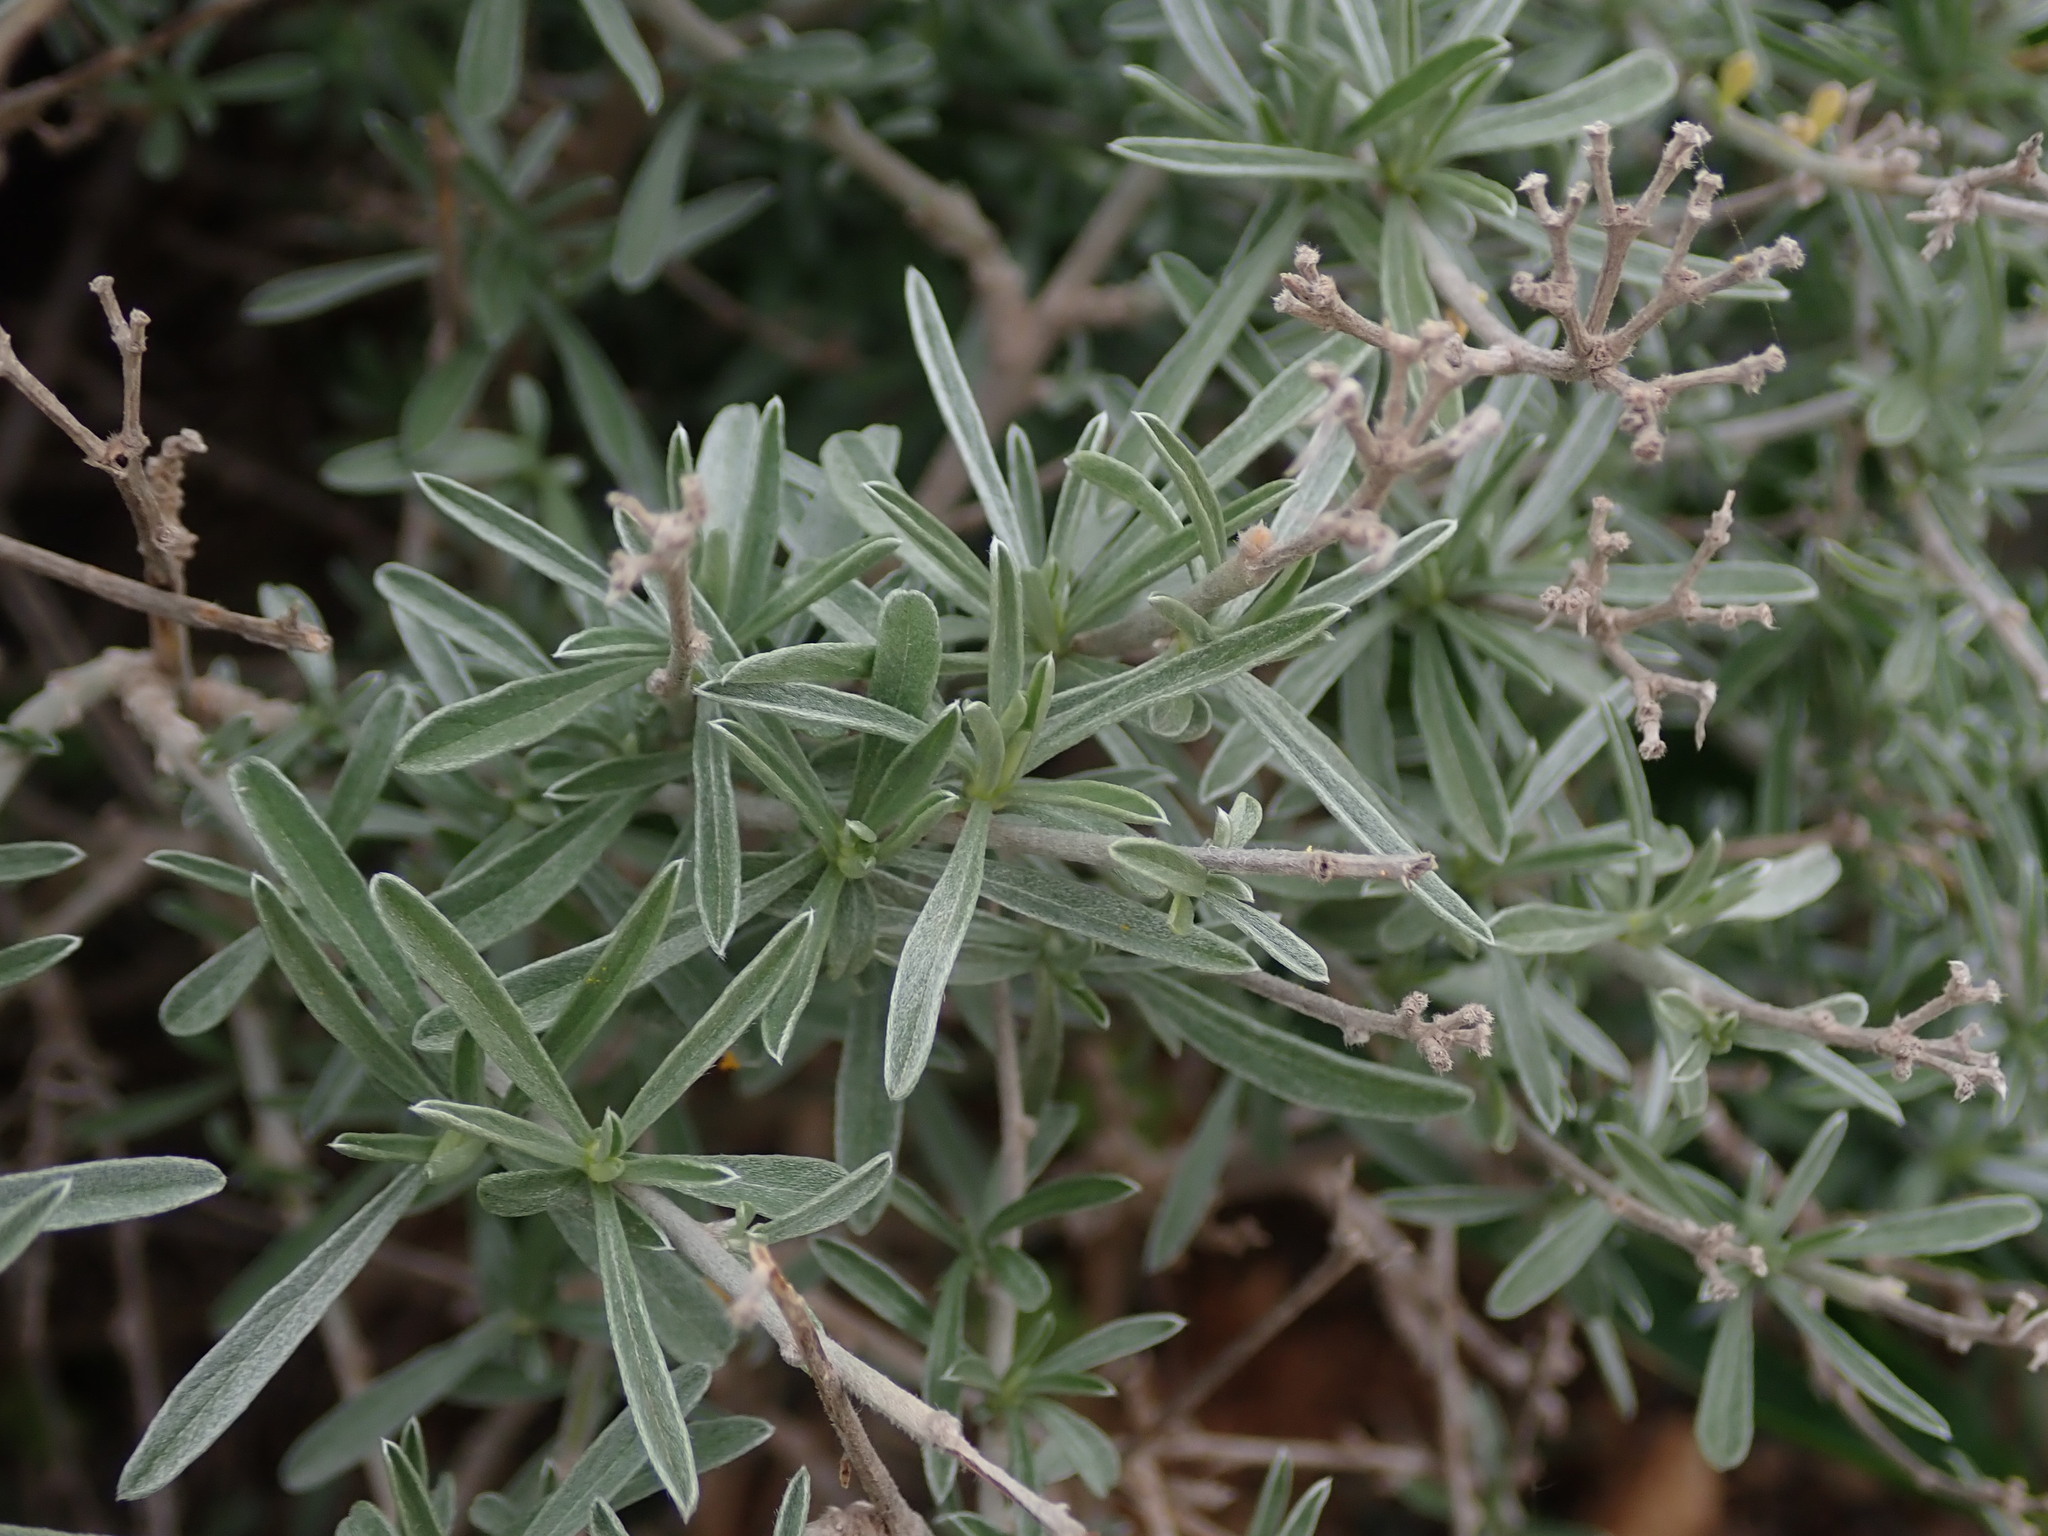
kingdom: Plantae
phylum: Tracheophyta
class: Magnoliopsida
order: Solanales
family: Convolvulaceae
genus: Convolvulus
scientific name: Convolvulus oleifolius
